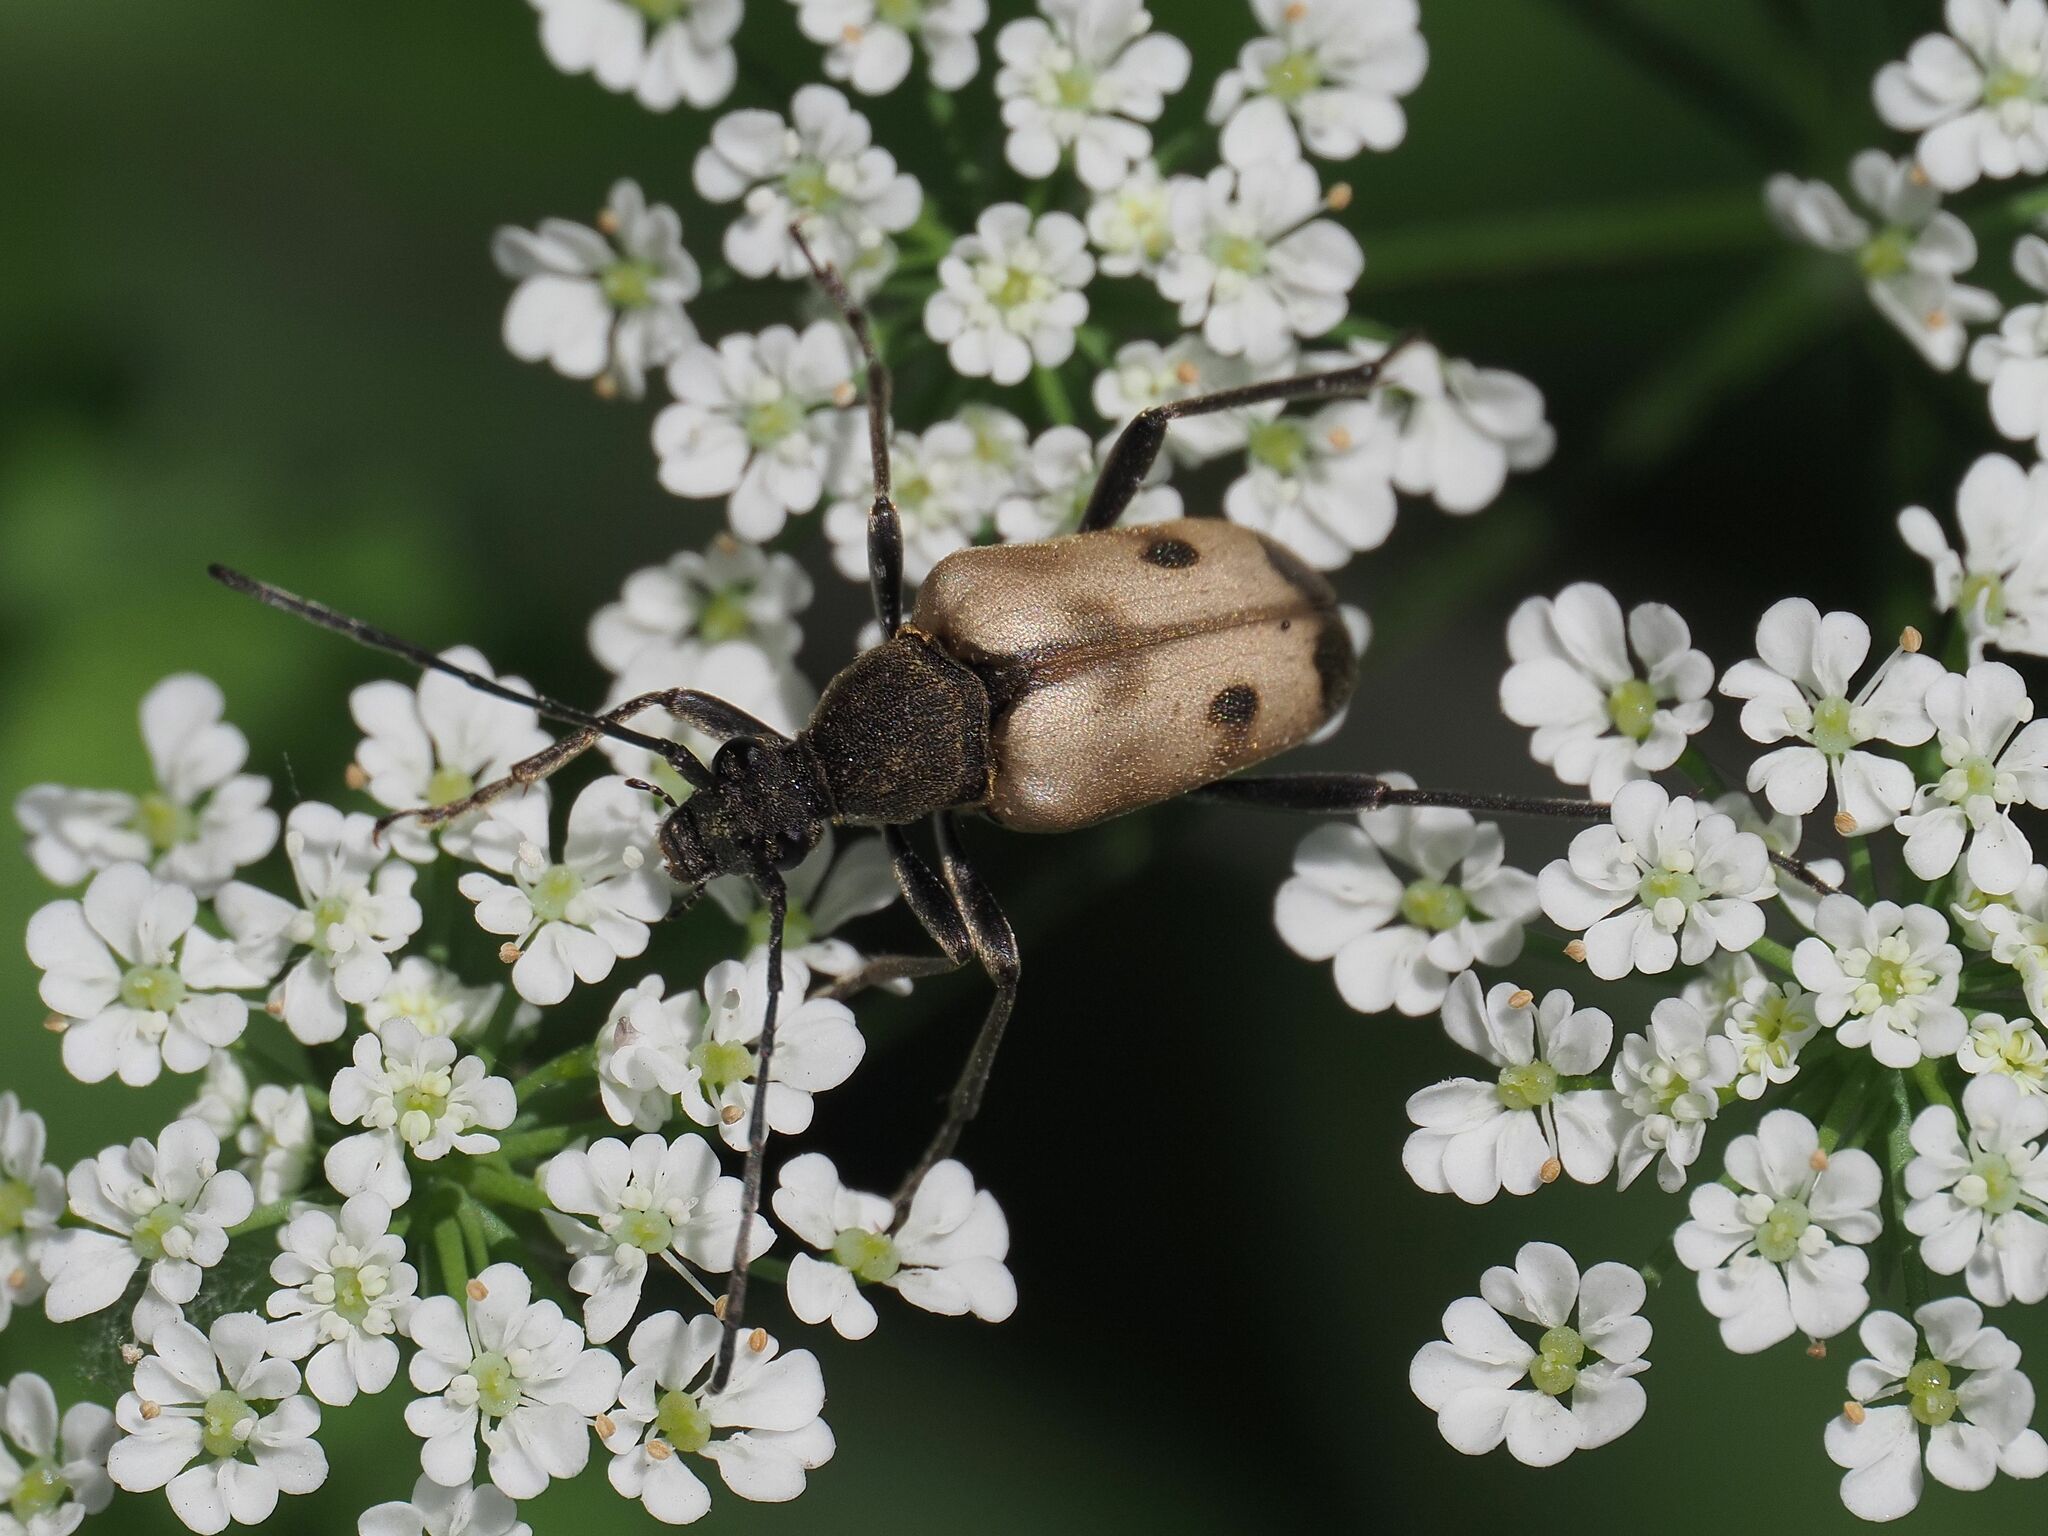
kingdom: Animalia
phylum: Arthropoda
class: Insecta
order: Coleoptera
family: Cerambycidae
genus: Pachytodes
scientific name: Pachytodes cerambyciformis
